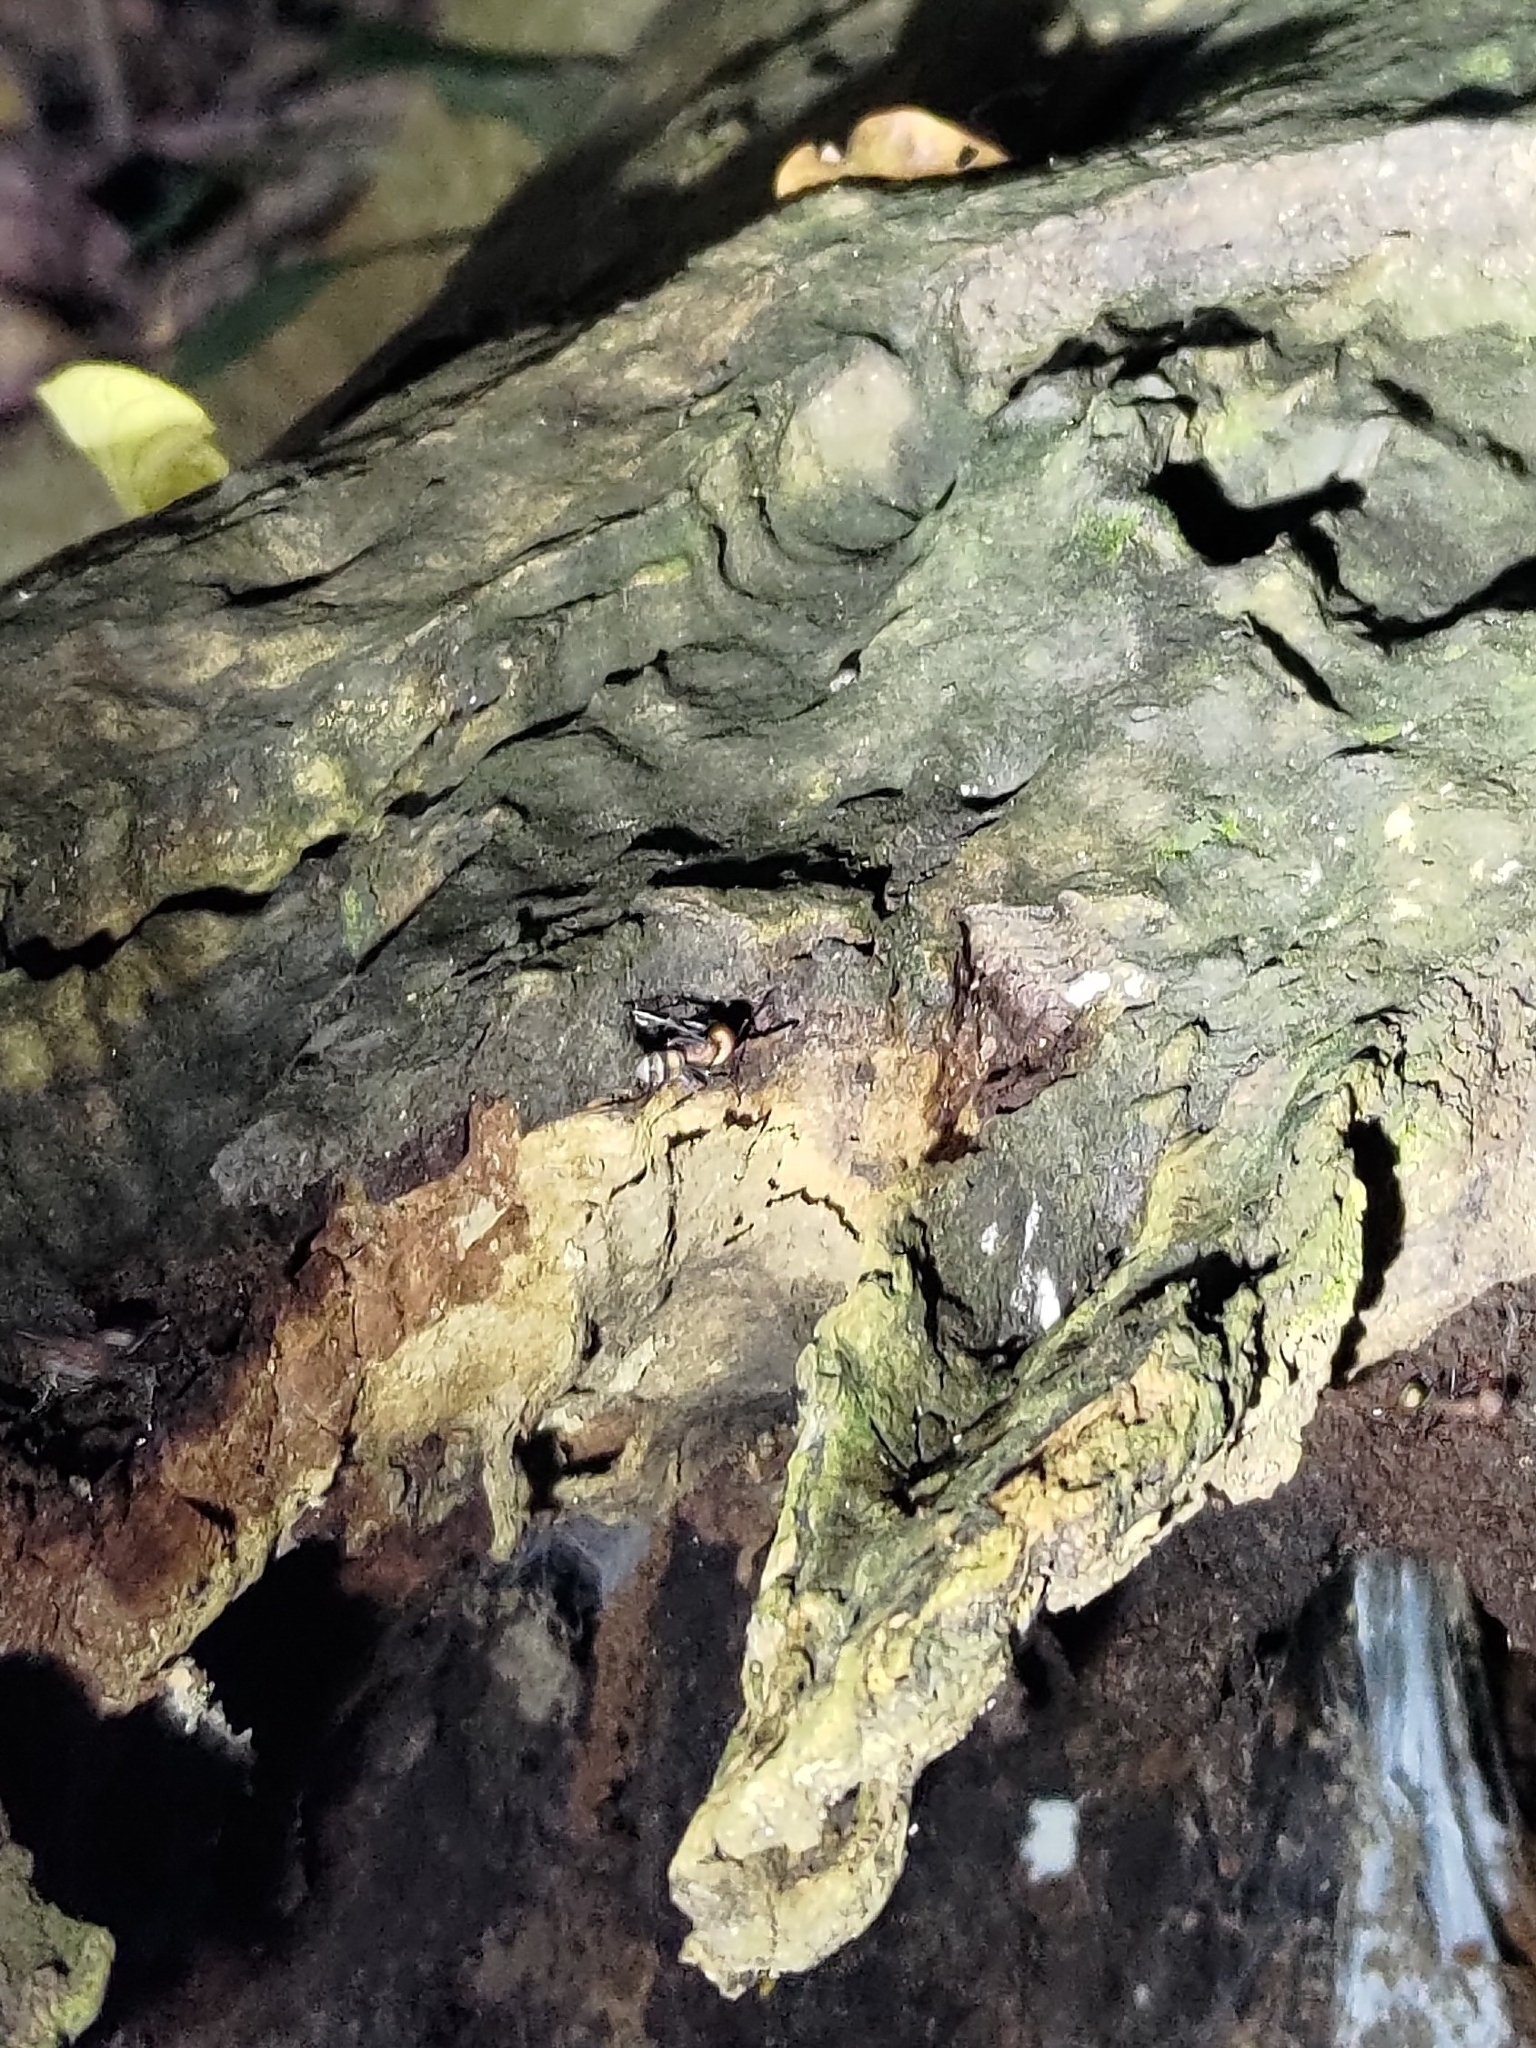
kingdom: Animalia
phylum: Arthropoda
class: Insecta
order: Hymenoptera
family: Formicidae
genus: Camponotus
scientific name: Camponotus habereri
